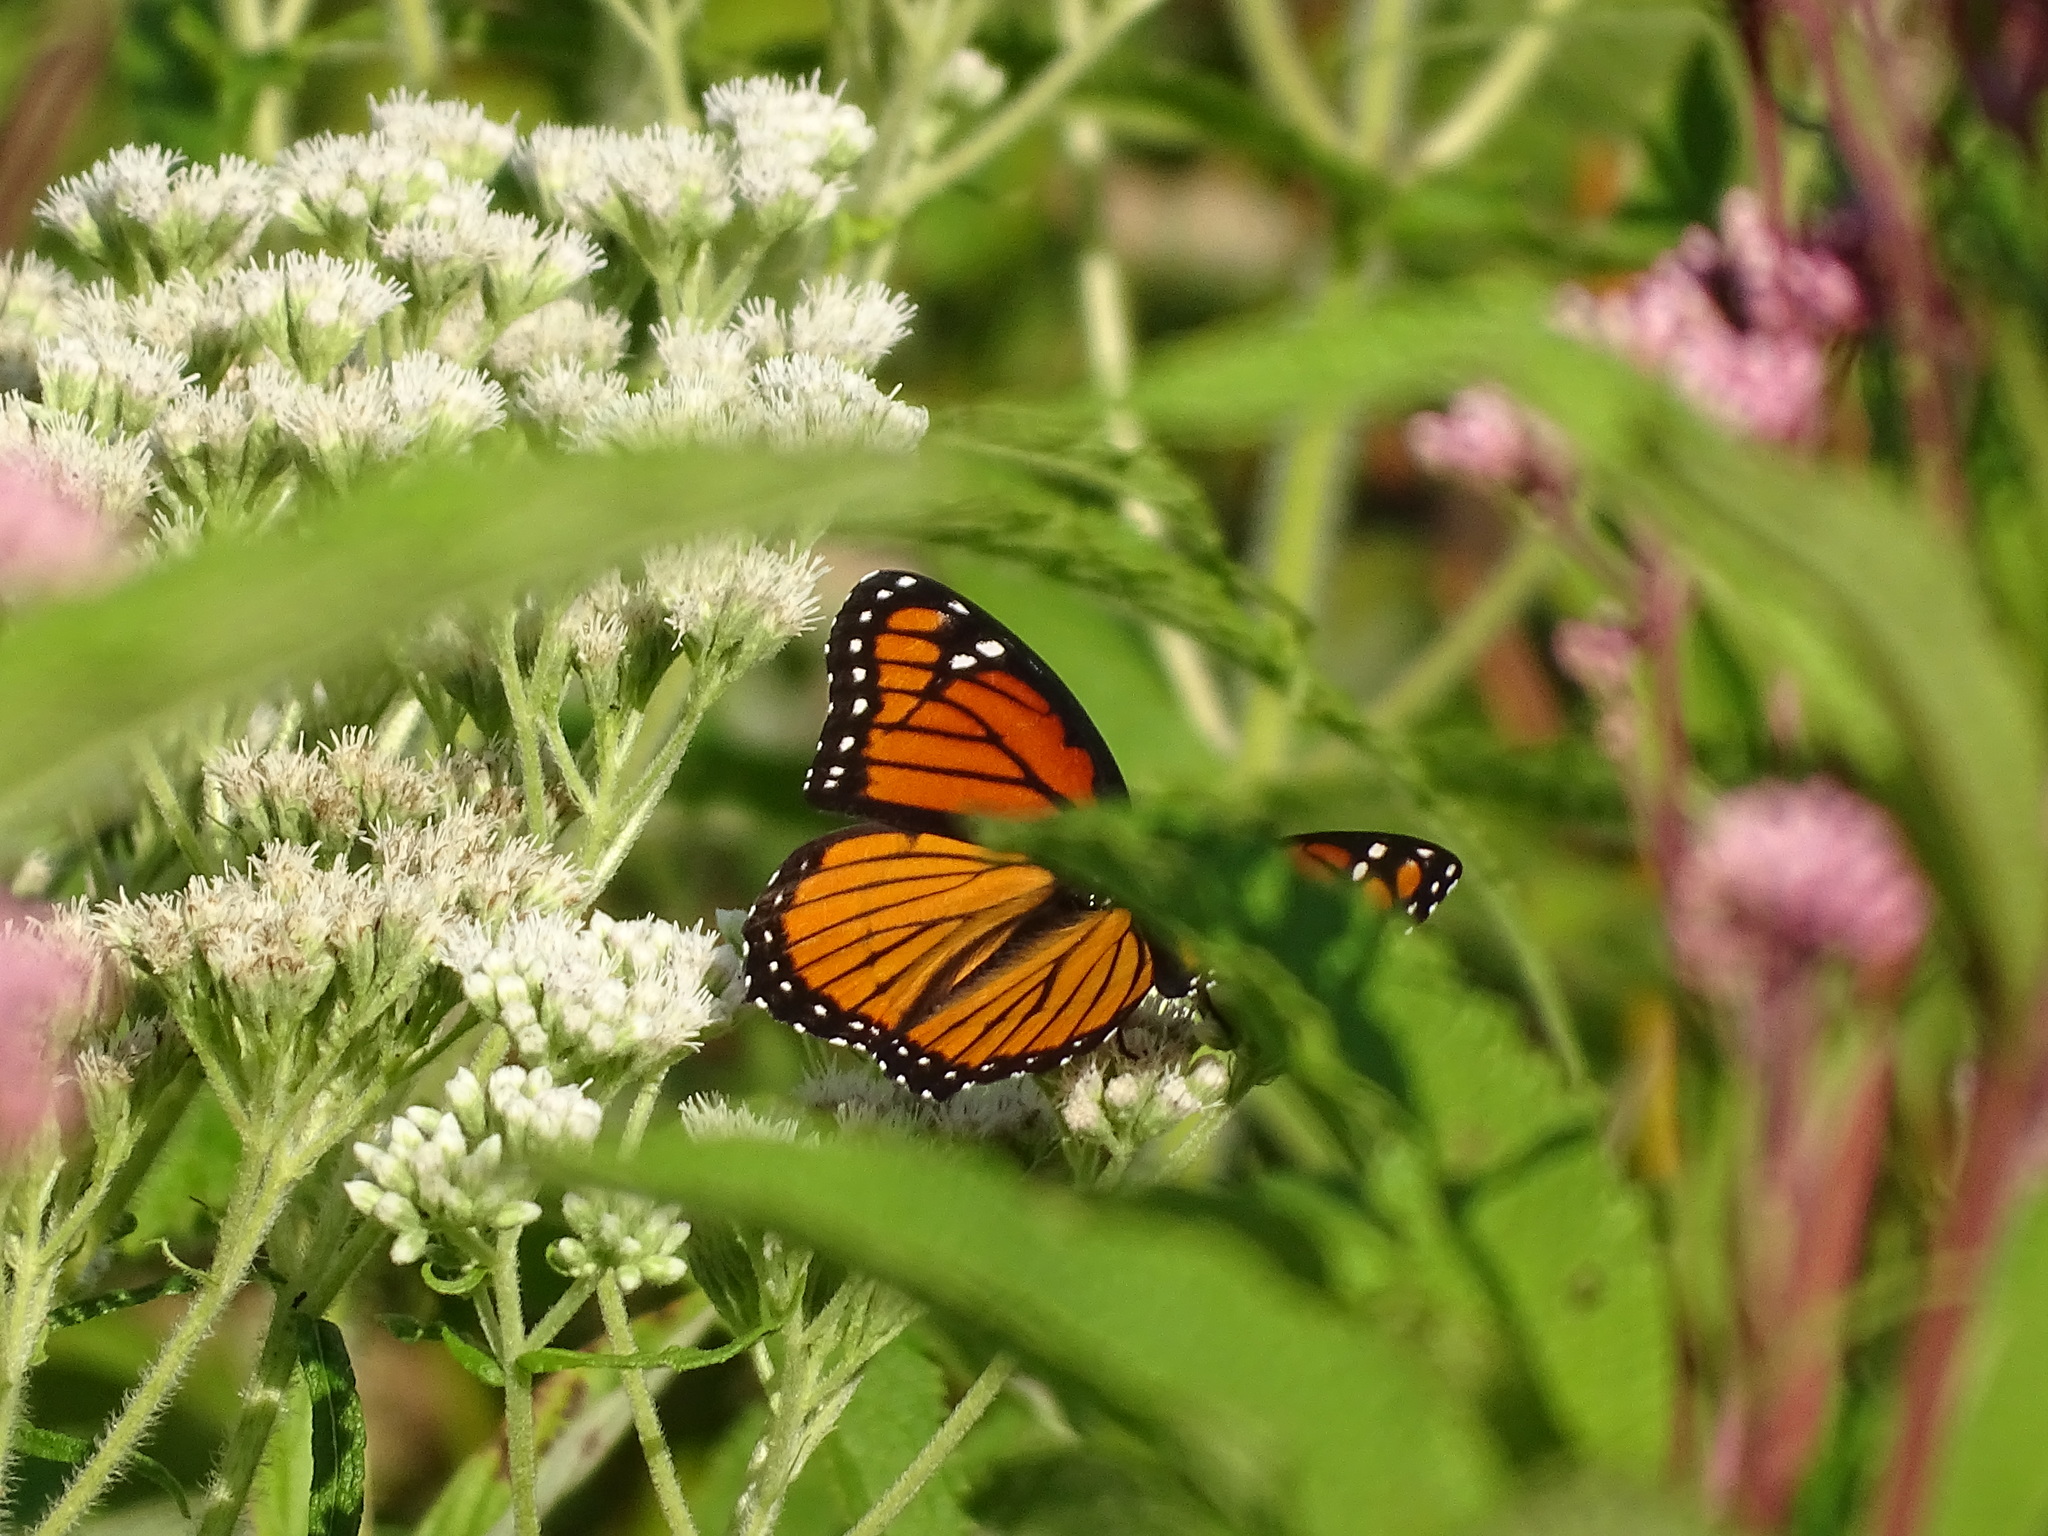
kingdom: Animalia
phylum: Arthropoda
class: Insecta
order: Lepidoptera
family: Nymphalidae
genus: Limenitis
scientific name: Limenitis archippus
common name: Viceroy
